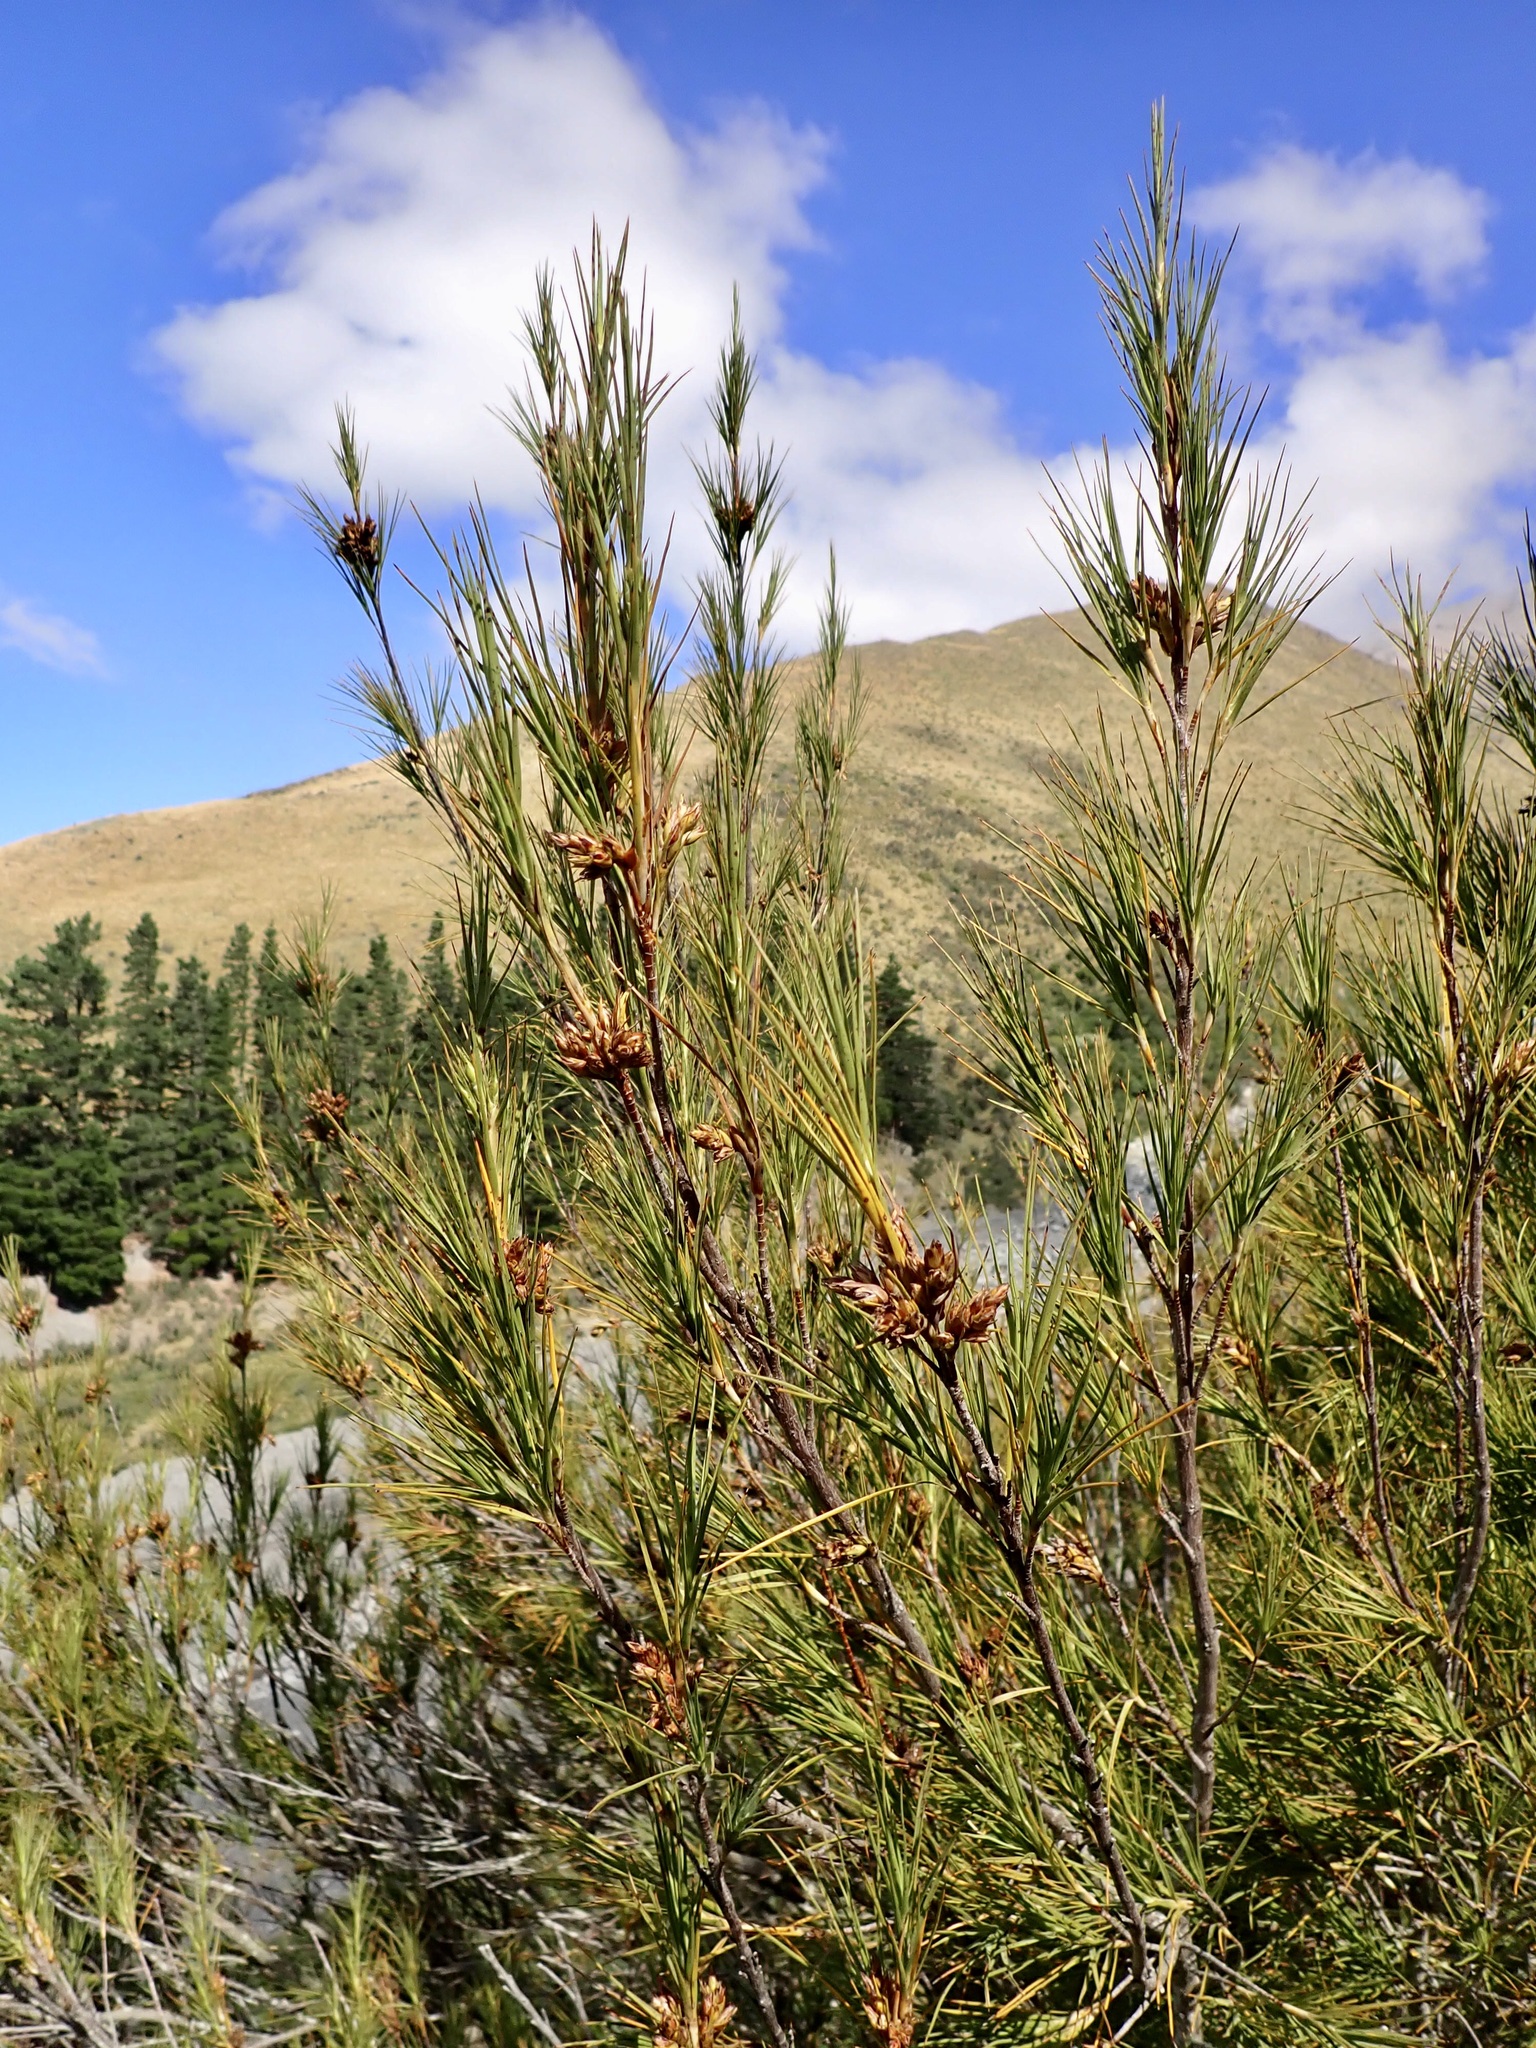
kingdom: Plantae
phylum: Tracheophyta
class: Magnoliopsida
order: Ericales
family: Ericaceae
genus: Dracophyllum
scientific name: Dracophyllum longifolium
